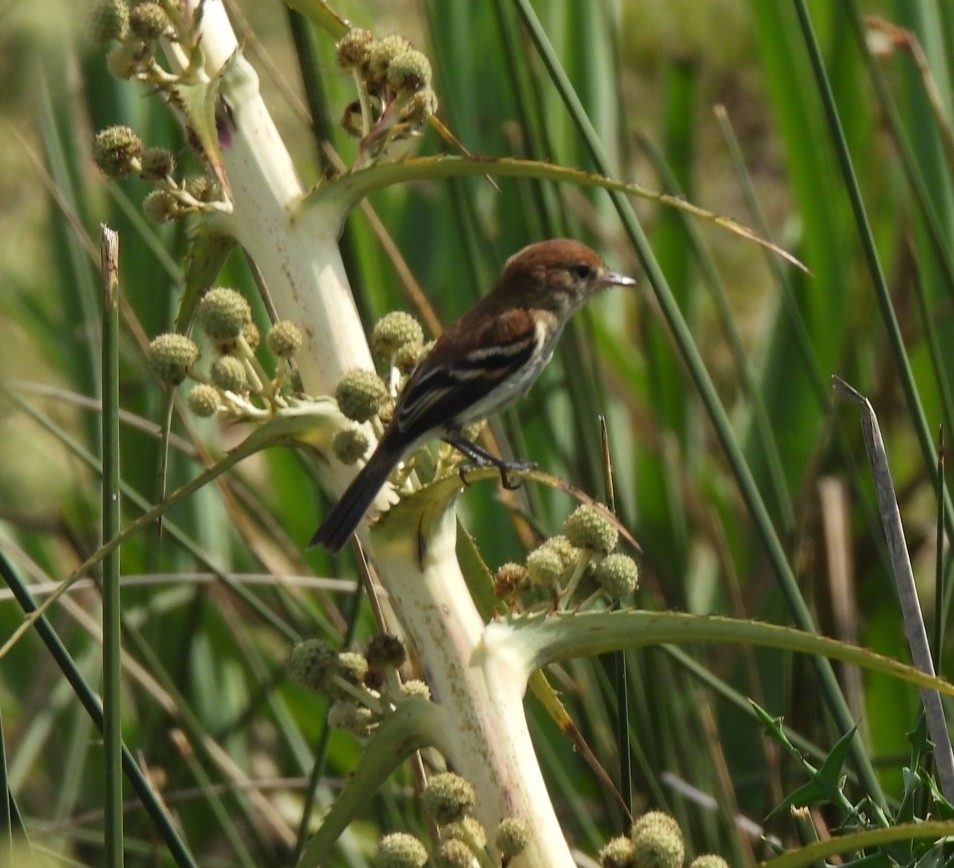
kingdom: Animalia
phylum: Chordata
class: Aves
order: Passeriformes
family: Tyrannidae
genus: Myiophobus
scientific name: Myiophobus fasciatus
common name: Bran-colored flycatcher
